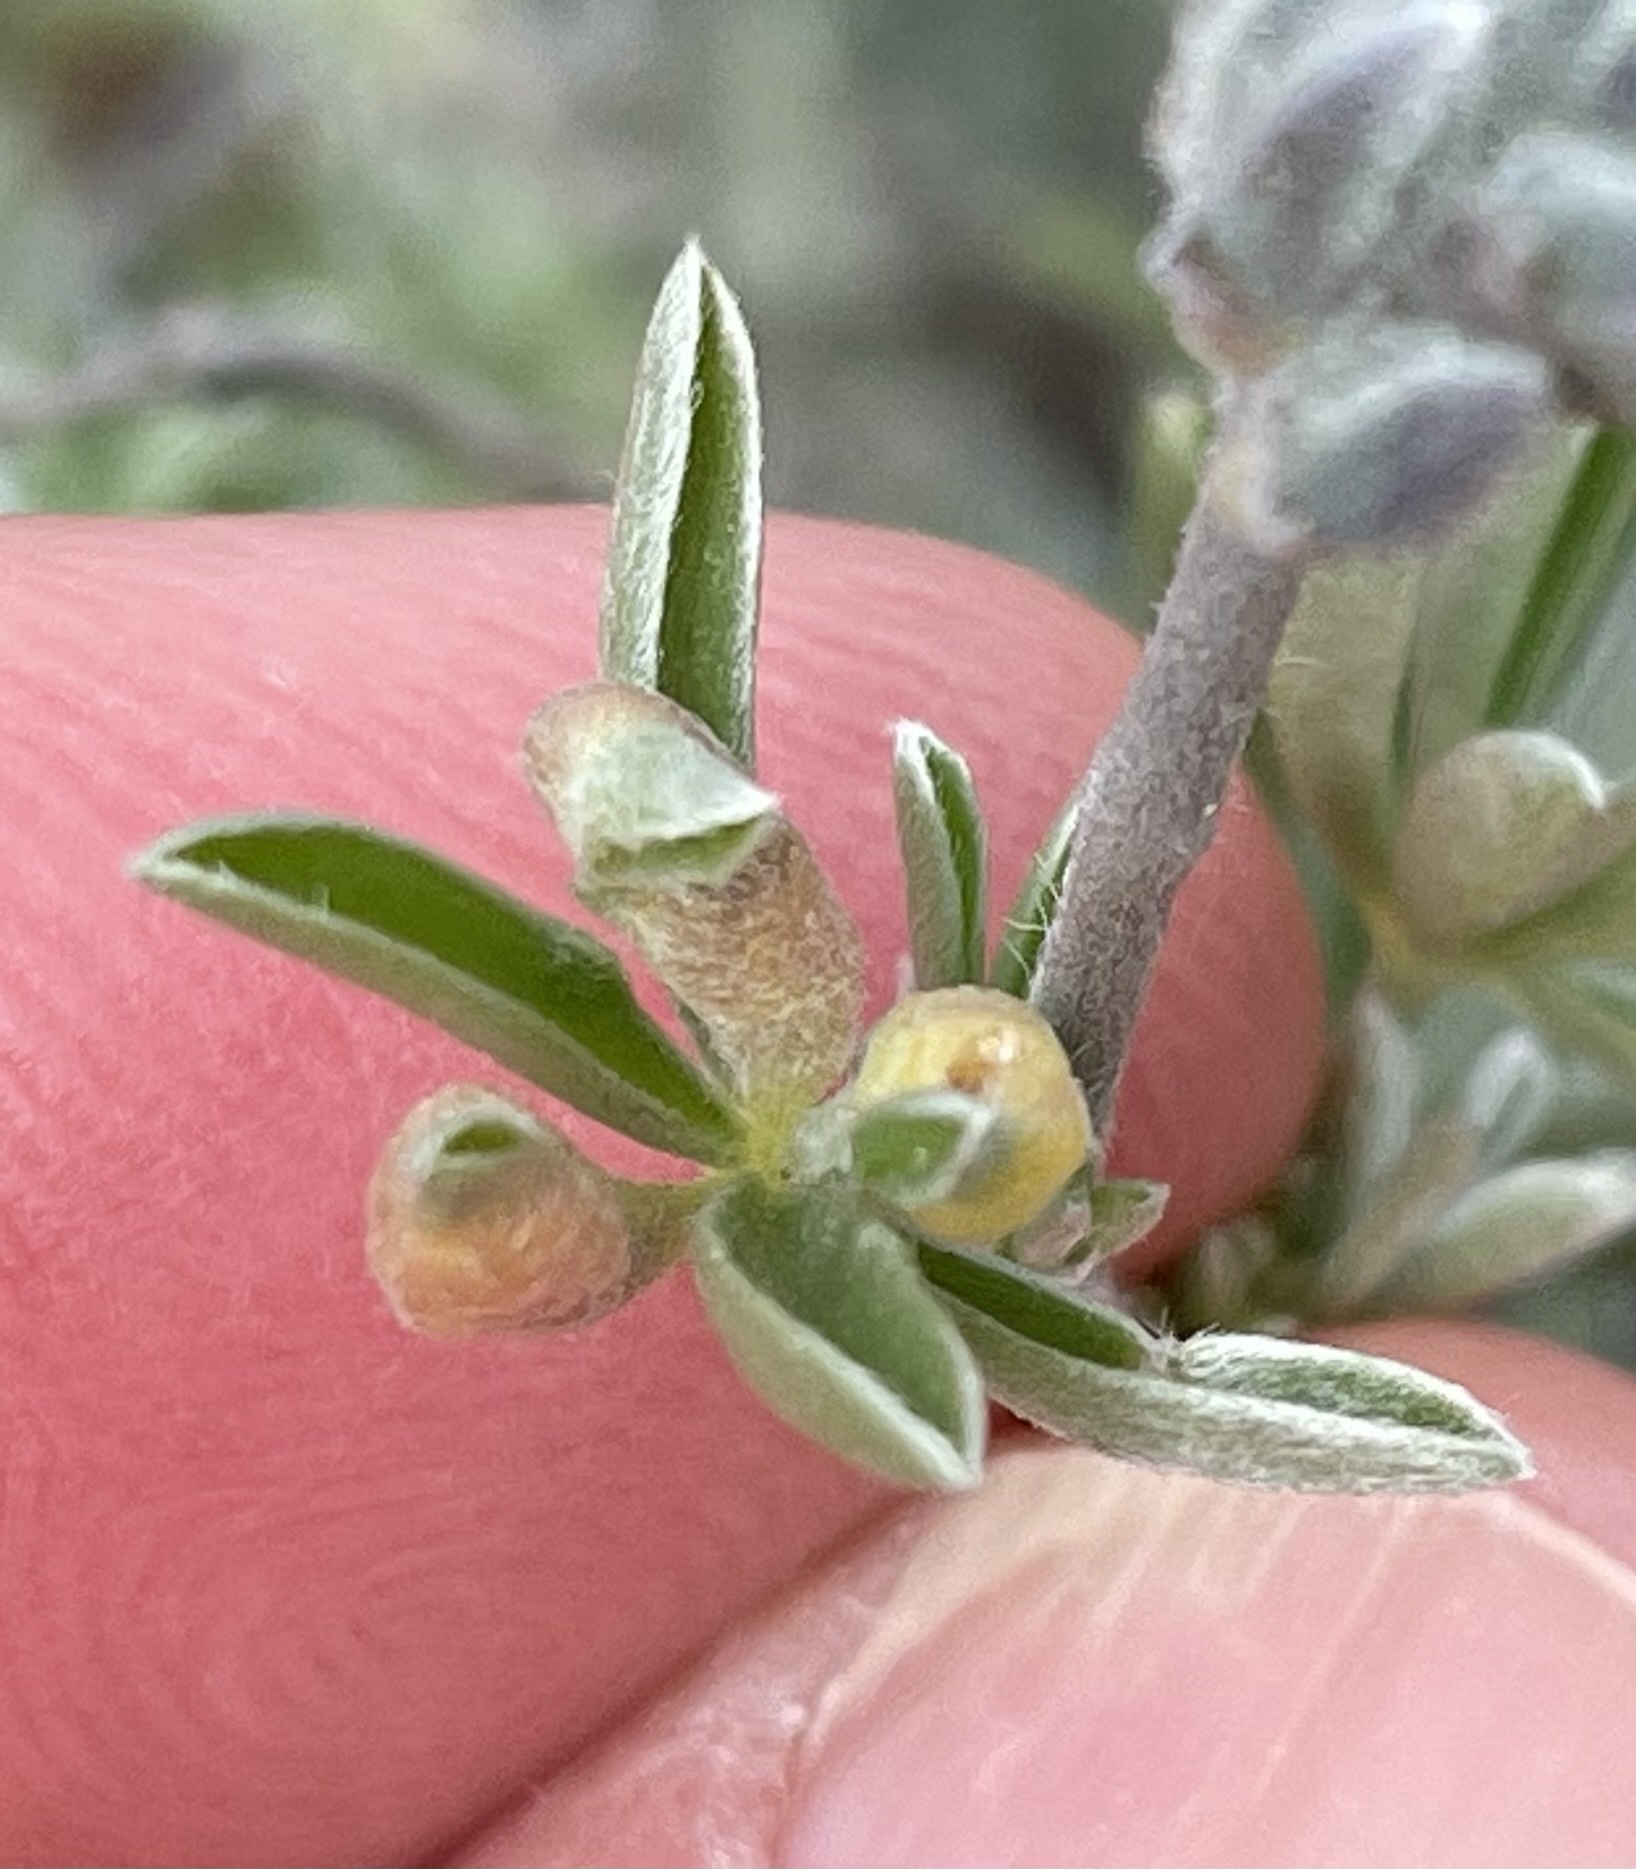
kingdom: Animalia
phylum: Arthropoda
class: Insecta
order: Diptera
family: Cecidomyiidae
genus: Dasineura
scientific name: Dasineura lupinorum
